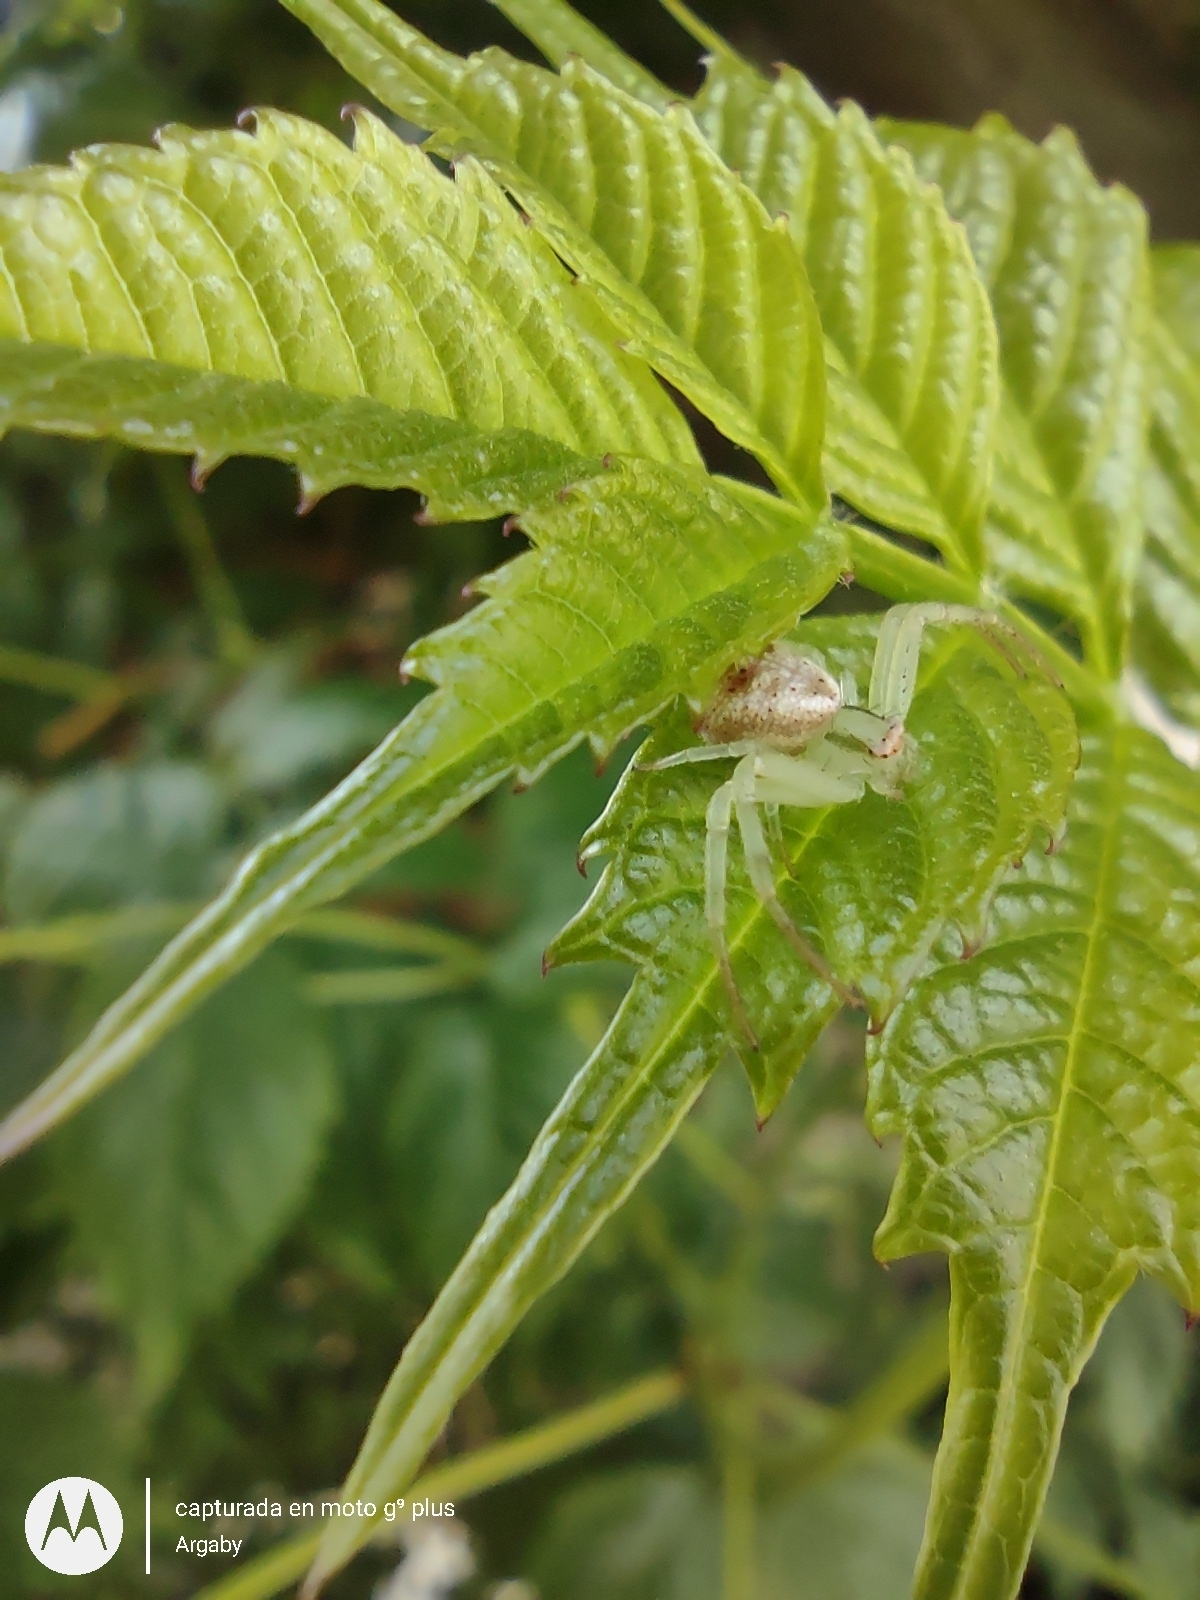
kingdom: Animalia
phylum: Arthropoda
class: Arachnida
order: Araneae
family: Thomisidae
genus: Misumenops
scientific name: Misumenops
